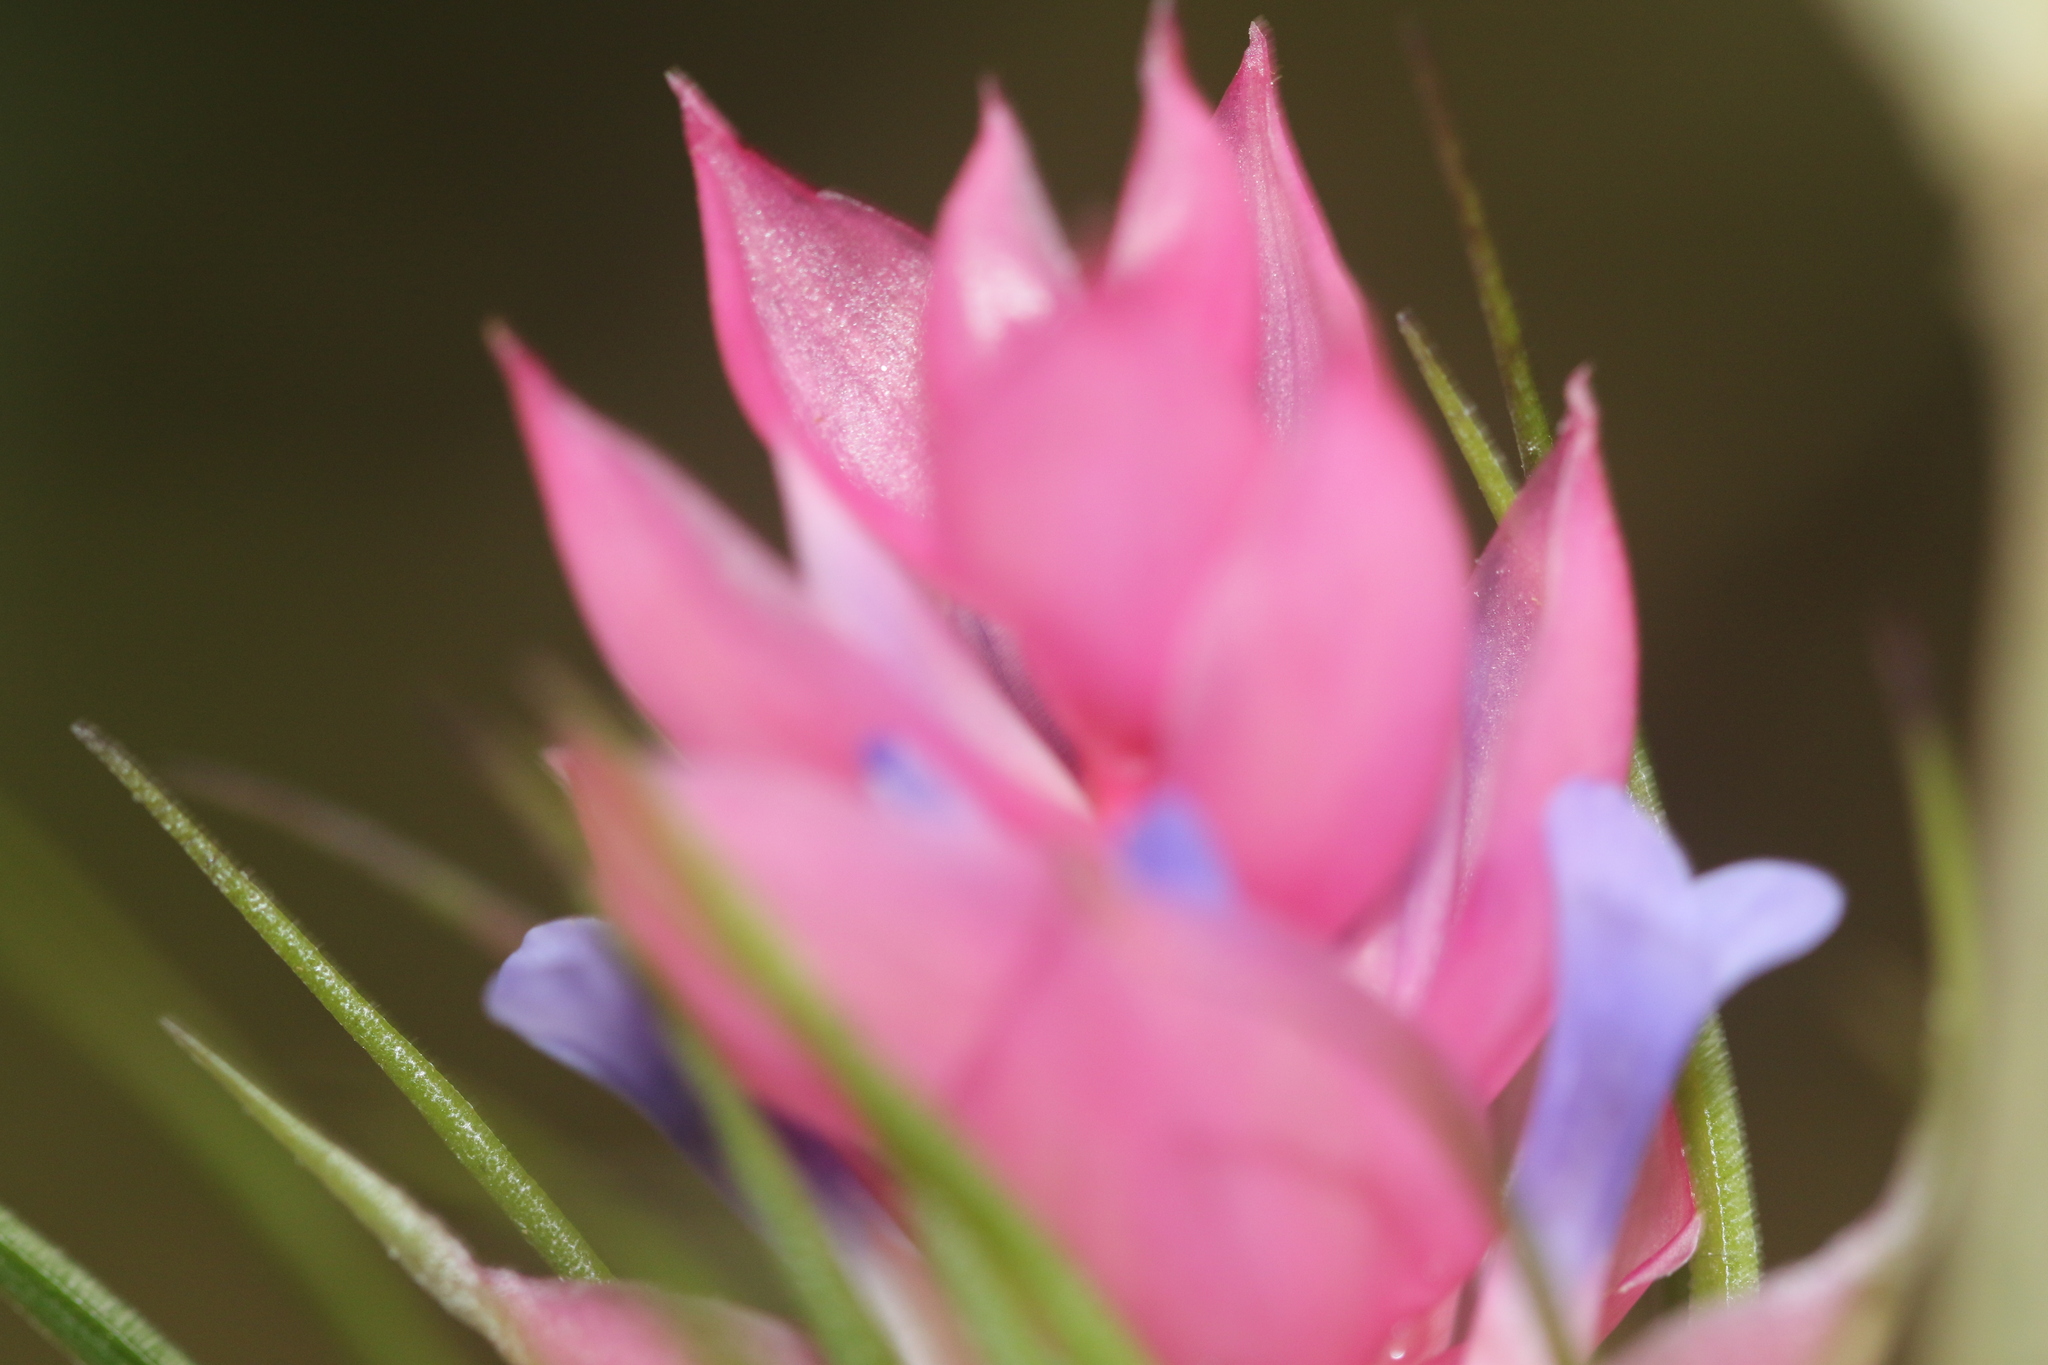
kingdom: Plantae
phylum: Tracheophyta
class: Liliopsida
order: Poales
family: Bromeliaceae
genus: Tillandsia
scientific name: Tillandsia stricta
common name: Airplant
